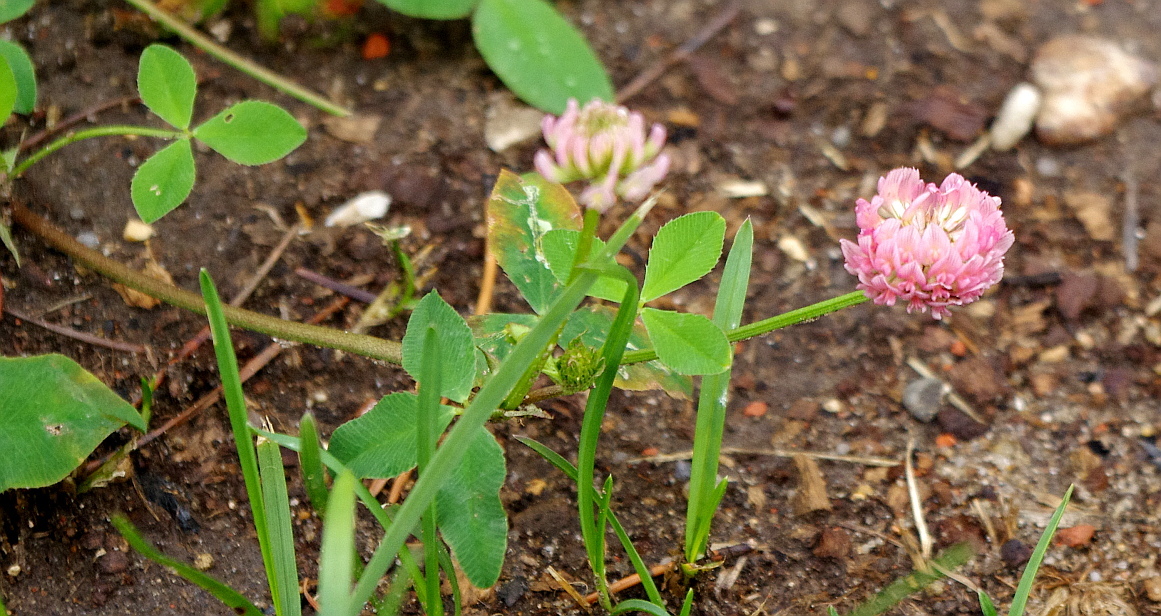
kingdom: Plantae
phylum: Tracheophyta
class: Magnoliopsida
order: Fabales
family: Fabaceae
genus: Trifolium
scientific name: Trifolium hybridum
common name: Alsike clover
